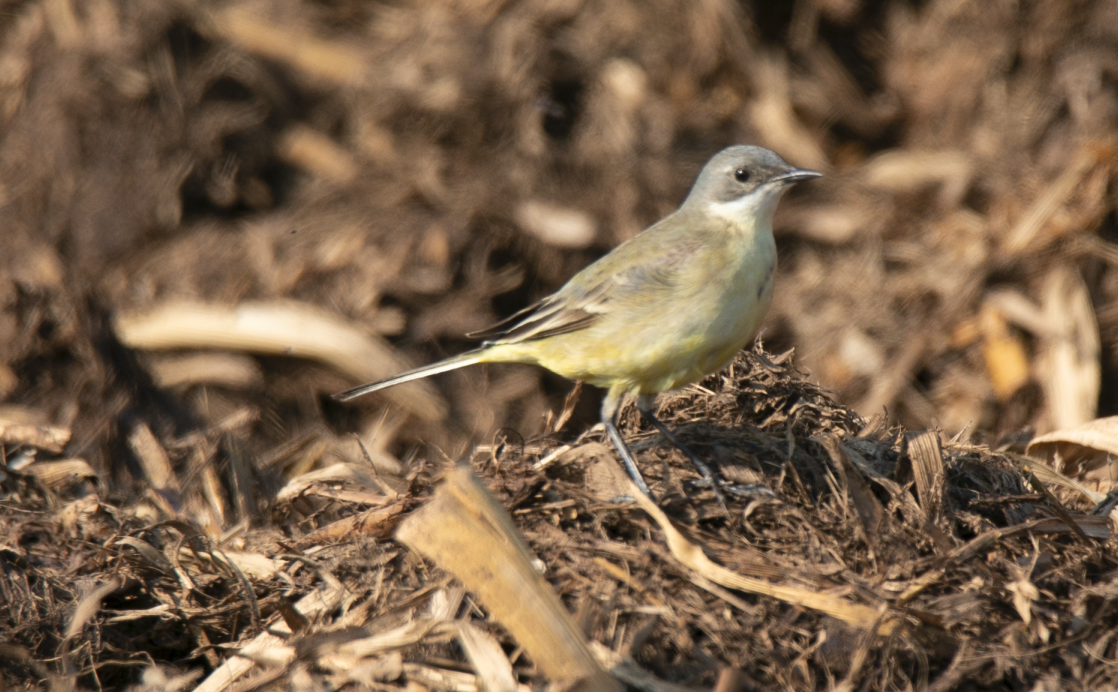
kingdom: Animalia
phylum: Chordata
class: Aves
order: Passeriformes
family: Motacillidae
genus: Motacilla
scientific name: Motacilla flava
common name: Western yellow wagtail
